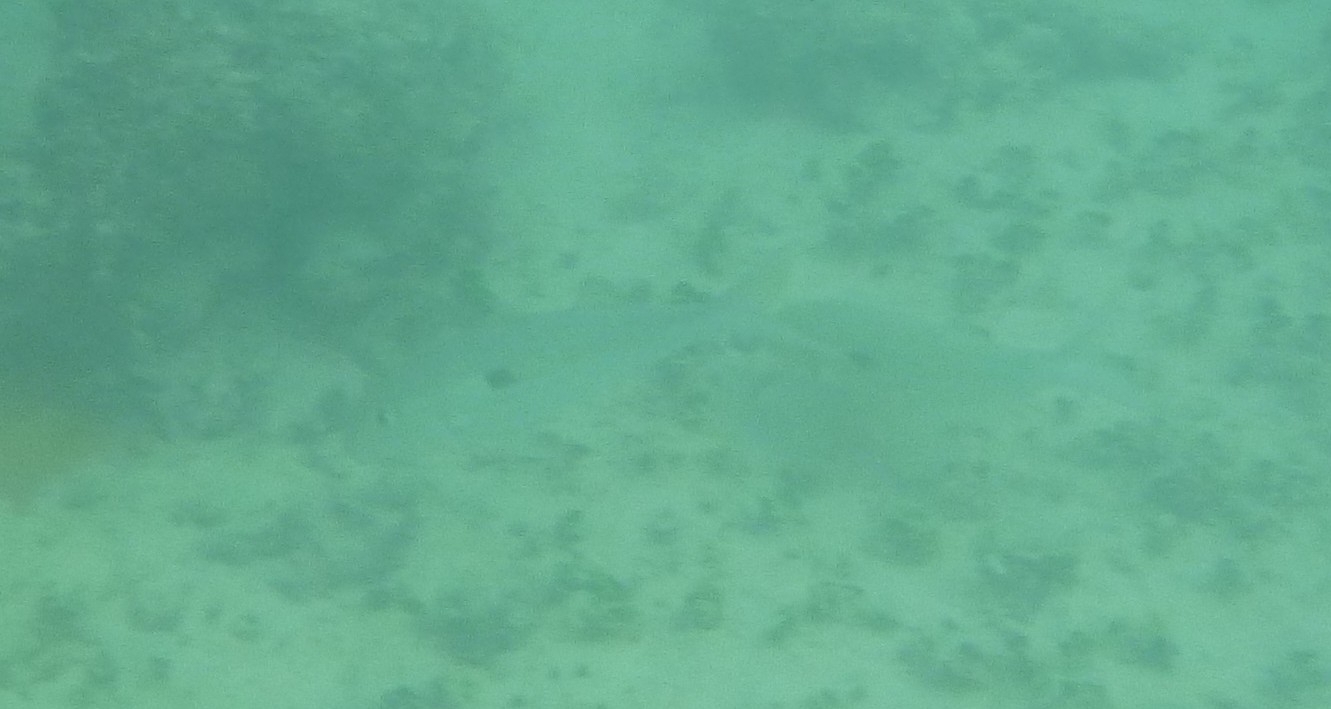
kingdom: Animalia
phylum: Chordata
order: Perciformes
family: Mullidae
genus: Mulloidichthys
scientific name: Mulloidichthys flavolineatus
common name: Yellowstripe goatfish
